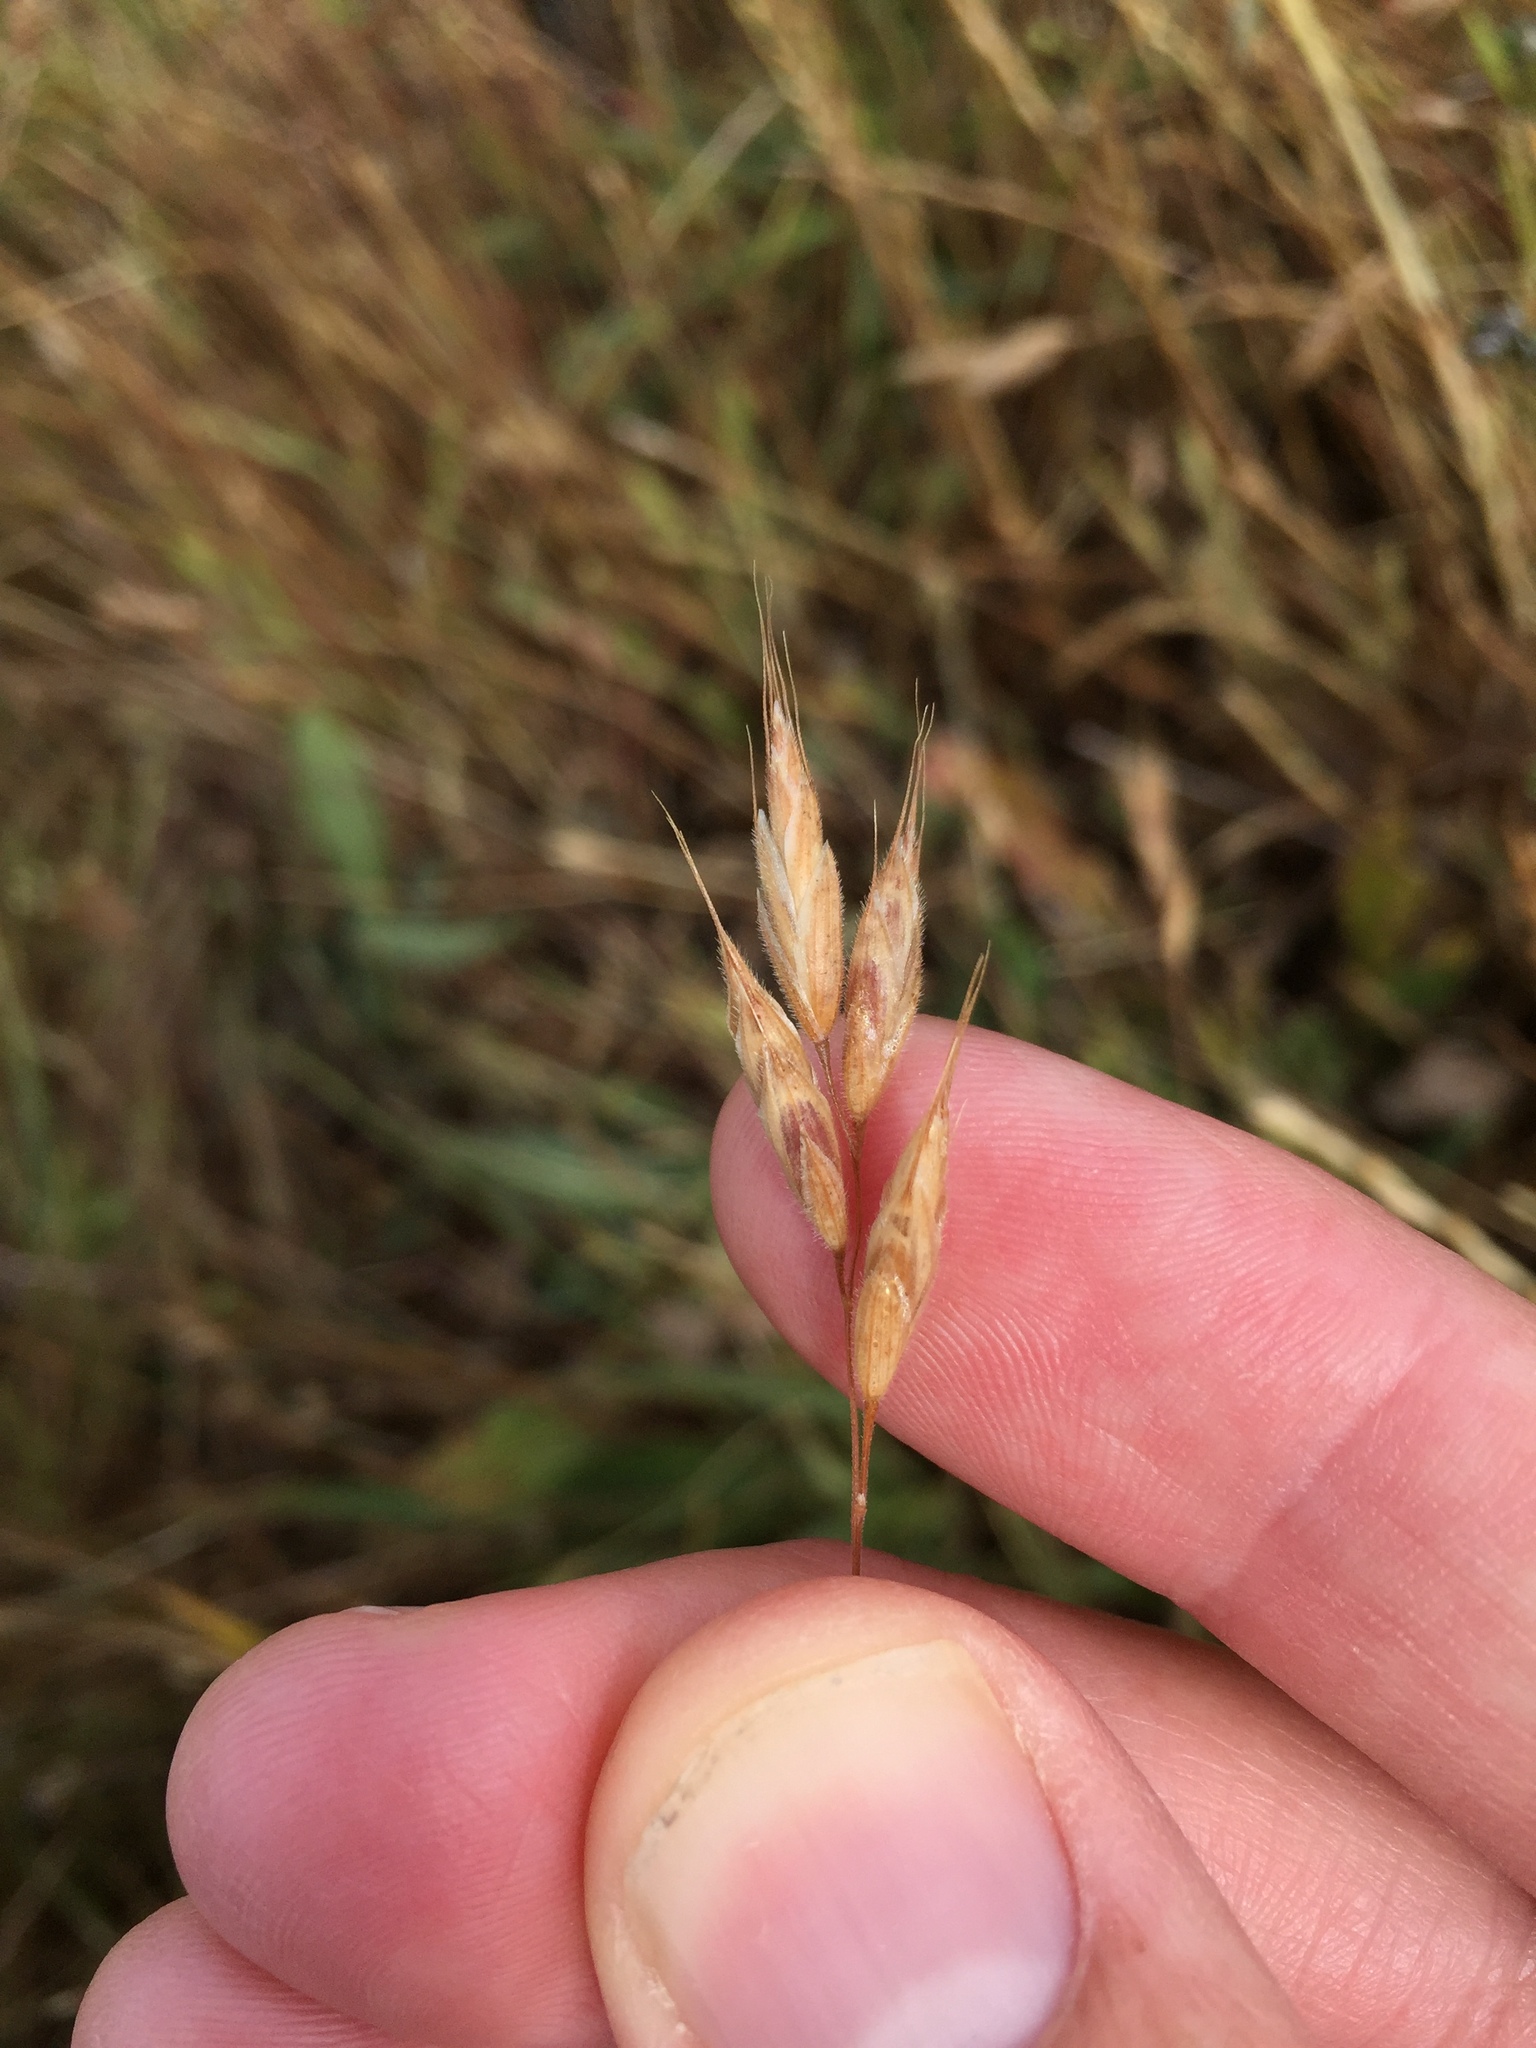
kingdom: Plantae
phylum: Tracheophyta
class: Liliopsida
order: Poales
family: Poaceae
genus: Bromus
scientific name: Bromus hordeaceus
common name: Soft brome
